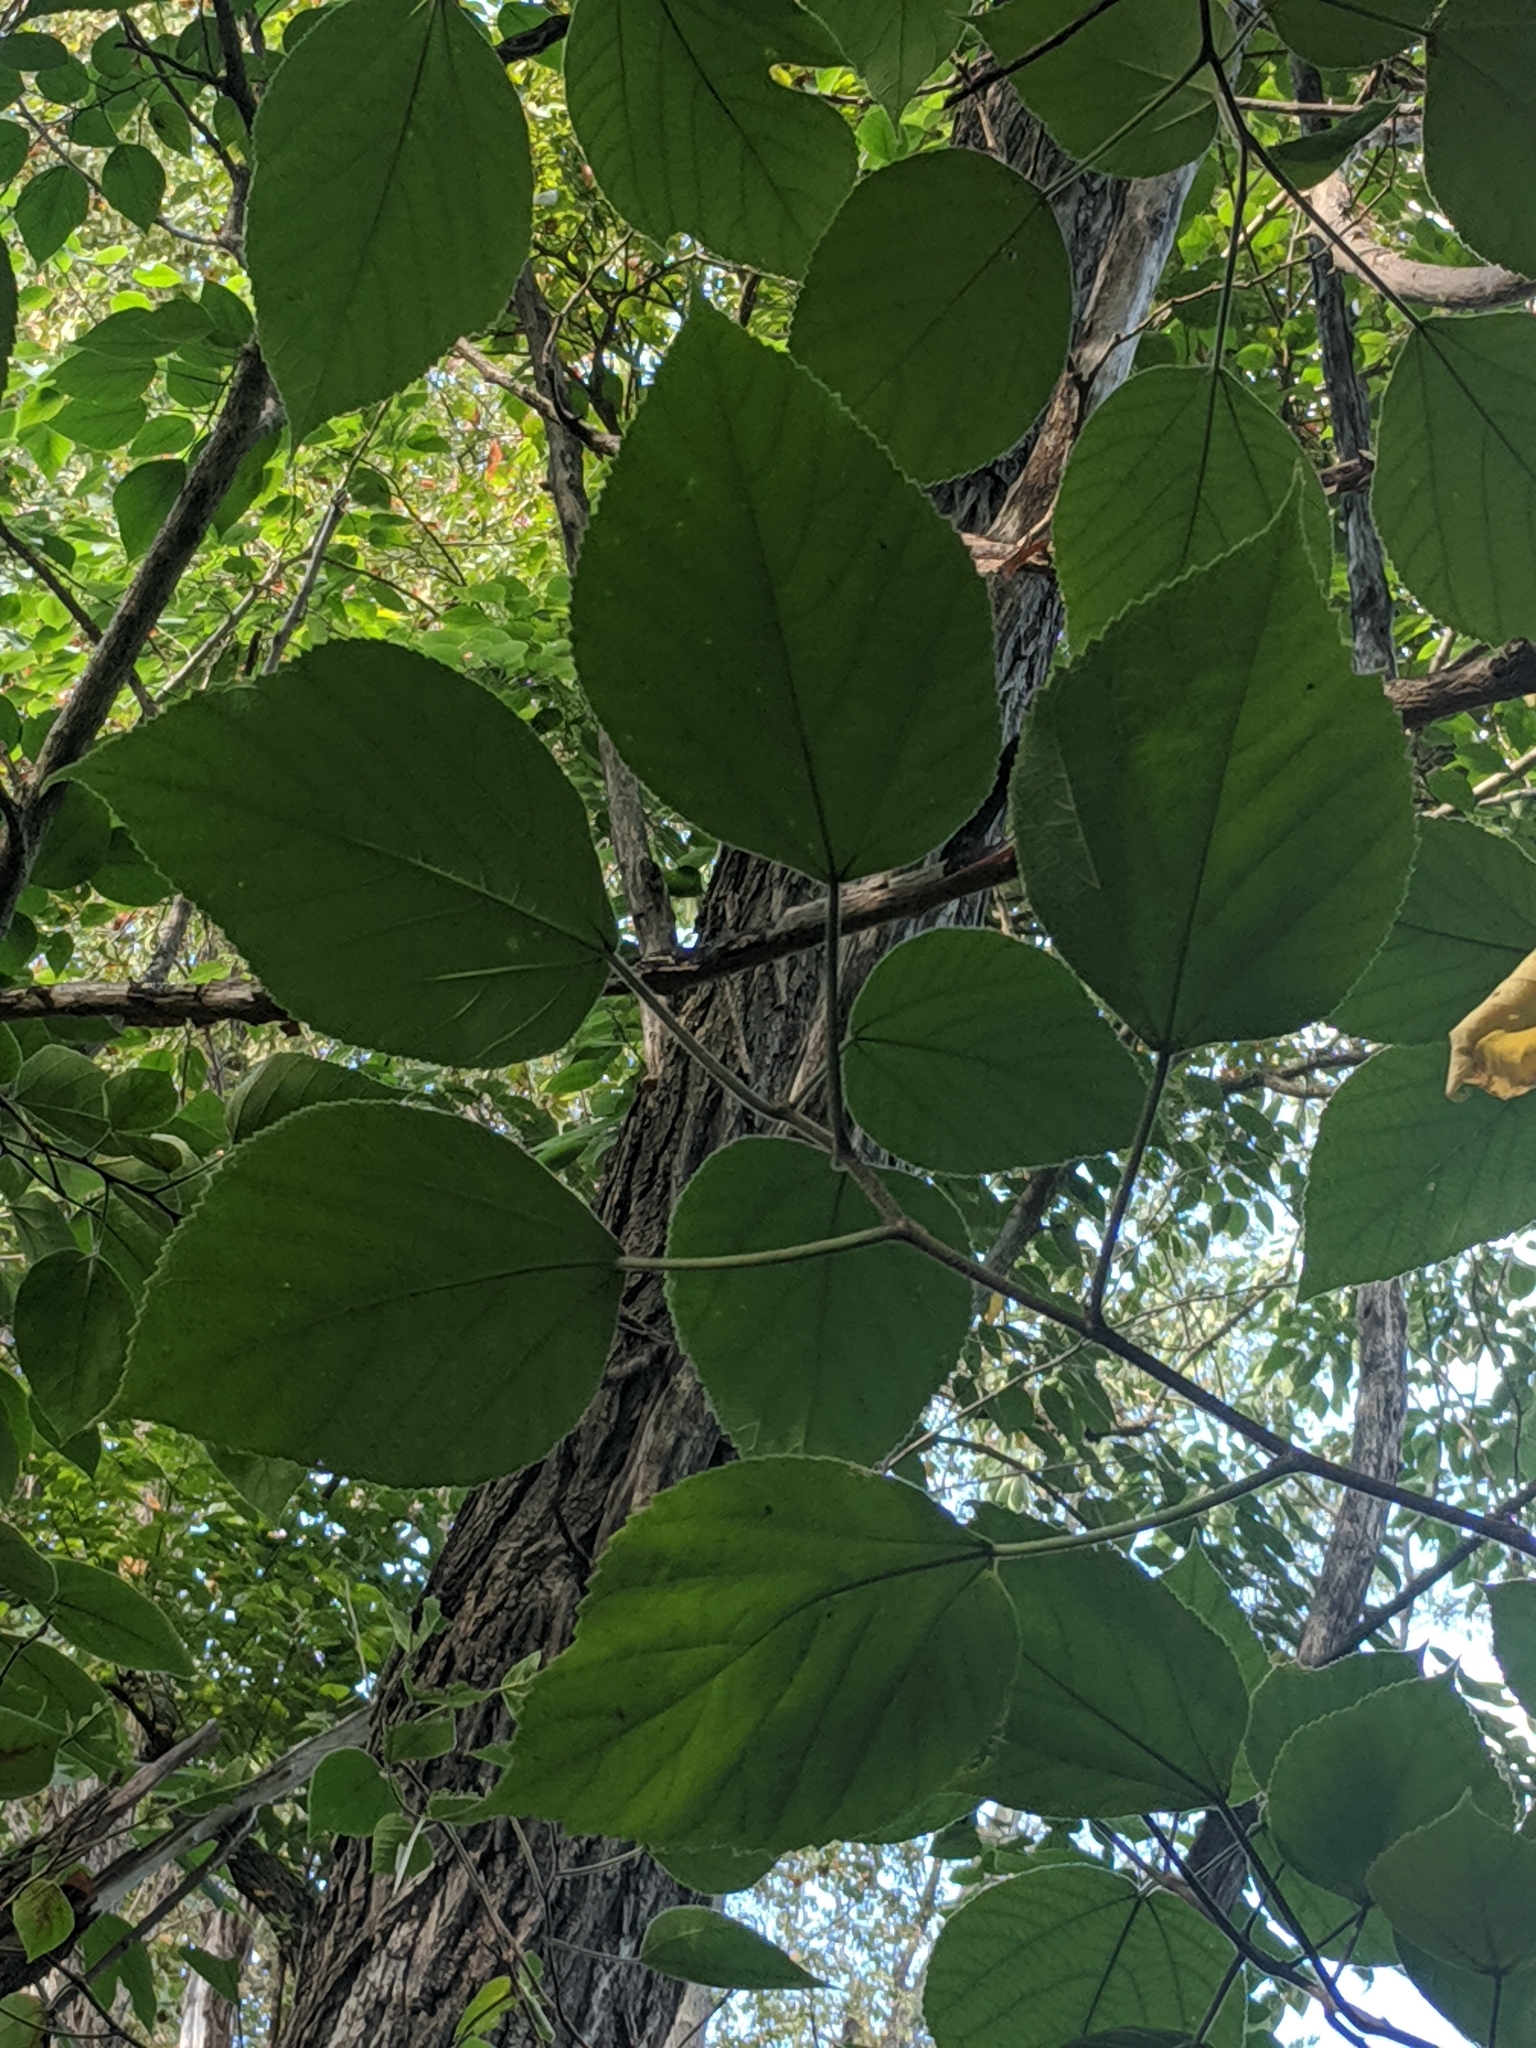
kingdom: Plantae
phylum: Tracheophyta
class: Magnoliopsida
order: Rosales
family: Moraceae
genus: Broussonetia
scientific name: Broussonetia papyrifera
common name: Paper mulberry
